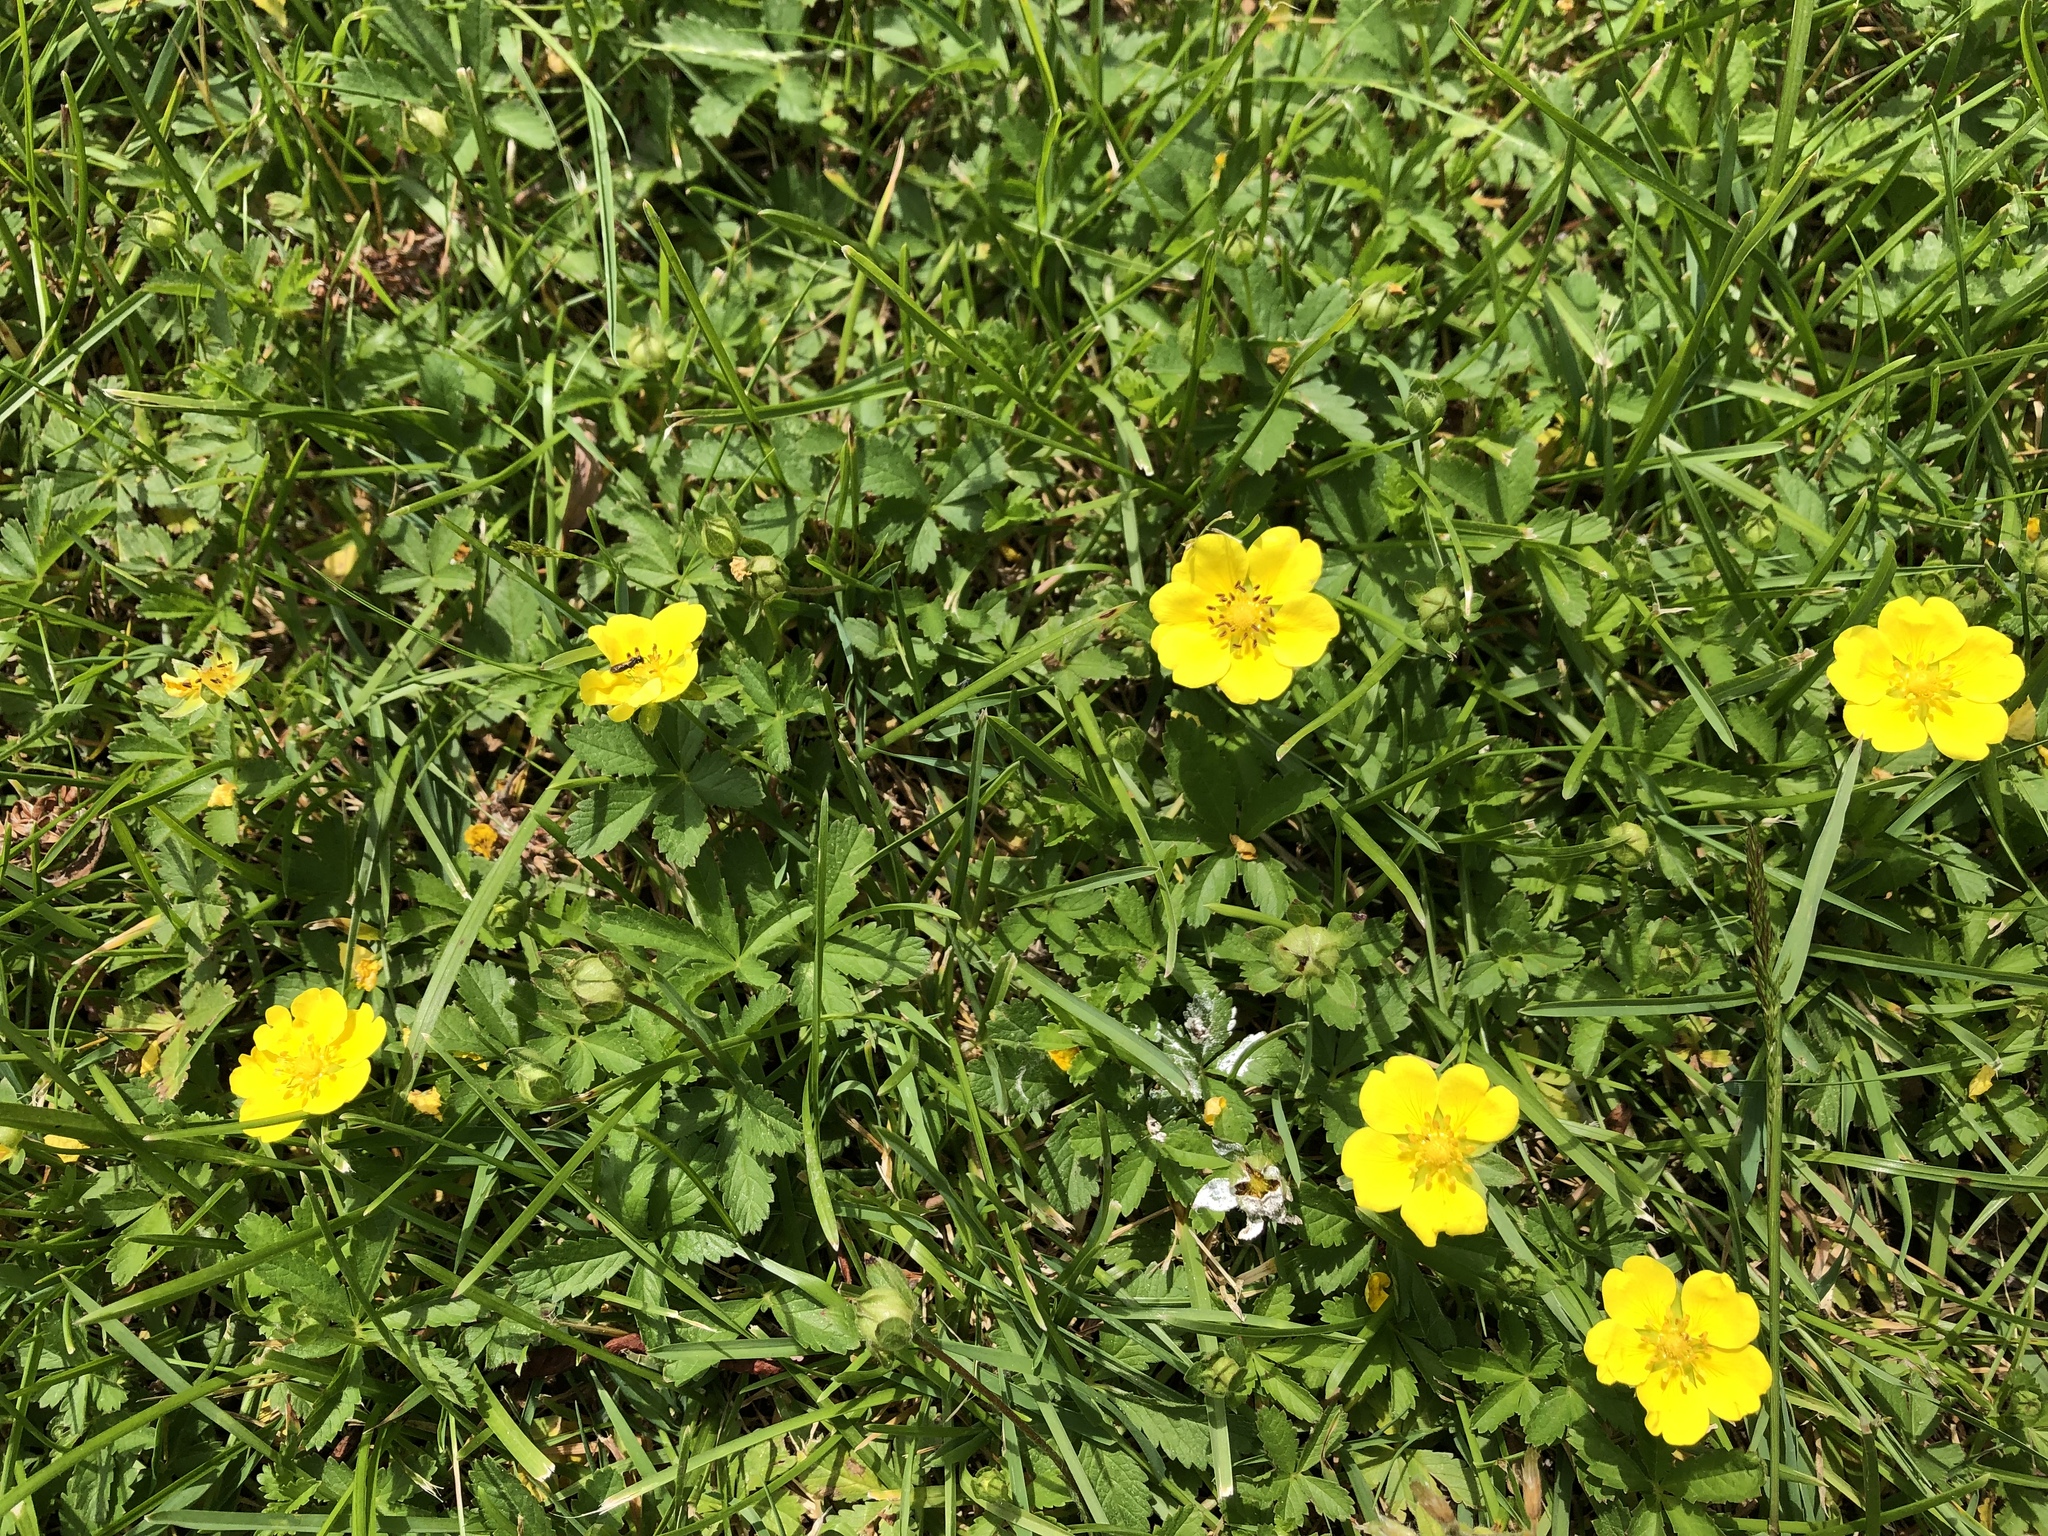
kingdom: Plantae
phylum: Tracheophyta
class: Magnoliopsida
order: Rosales
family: Rosaceae
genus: Potentilla
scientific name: Potentilla reptans
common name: Creeping cinquefoil
